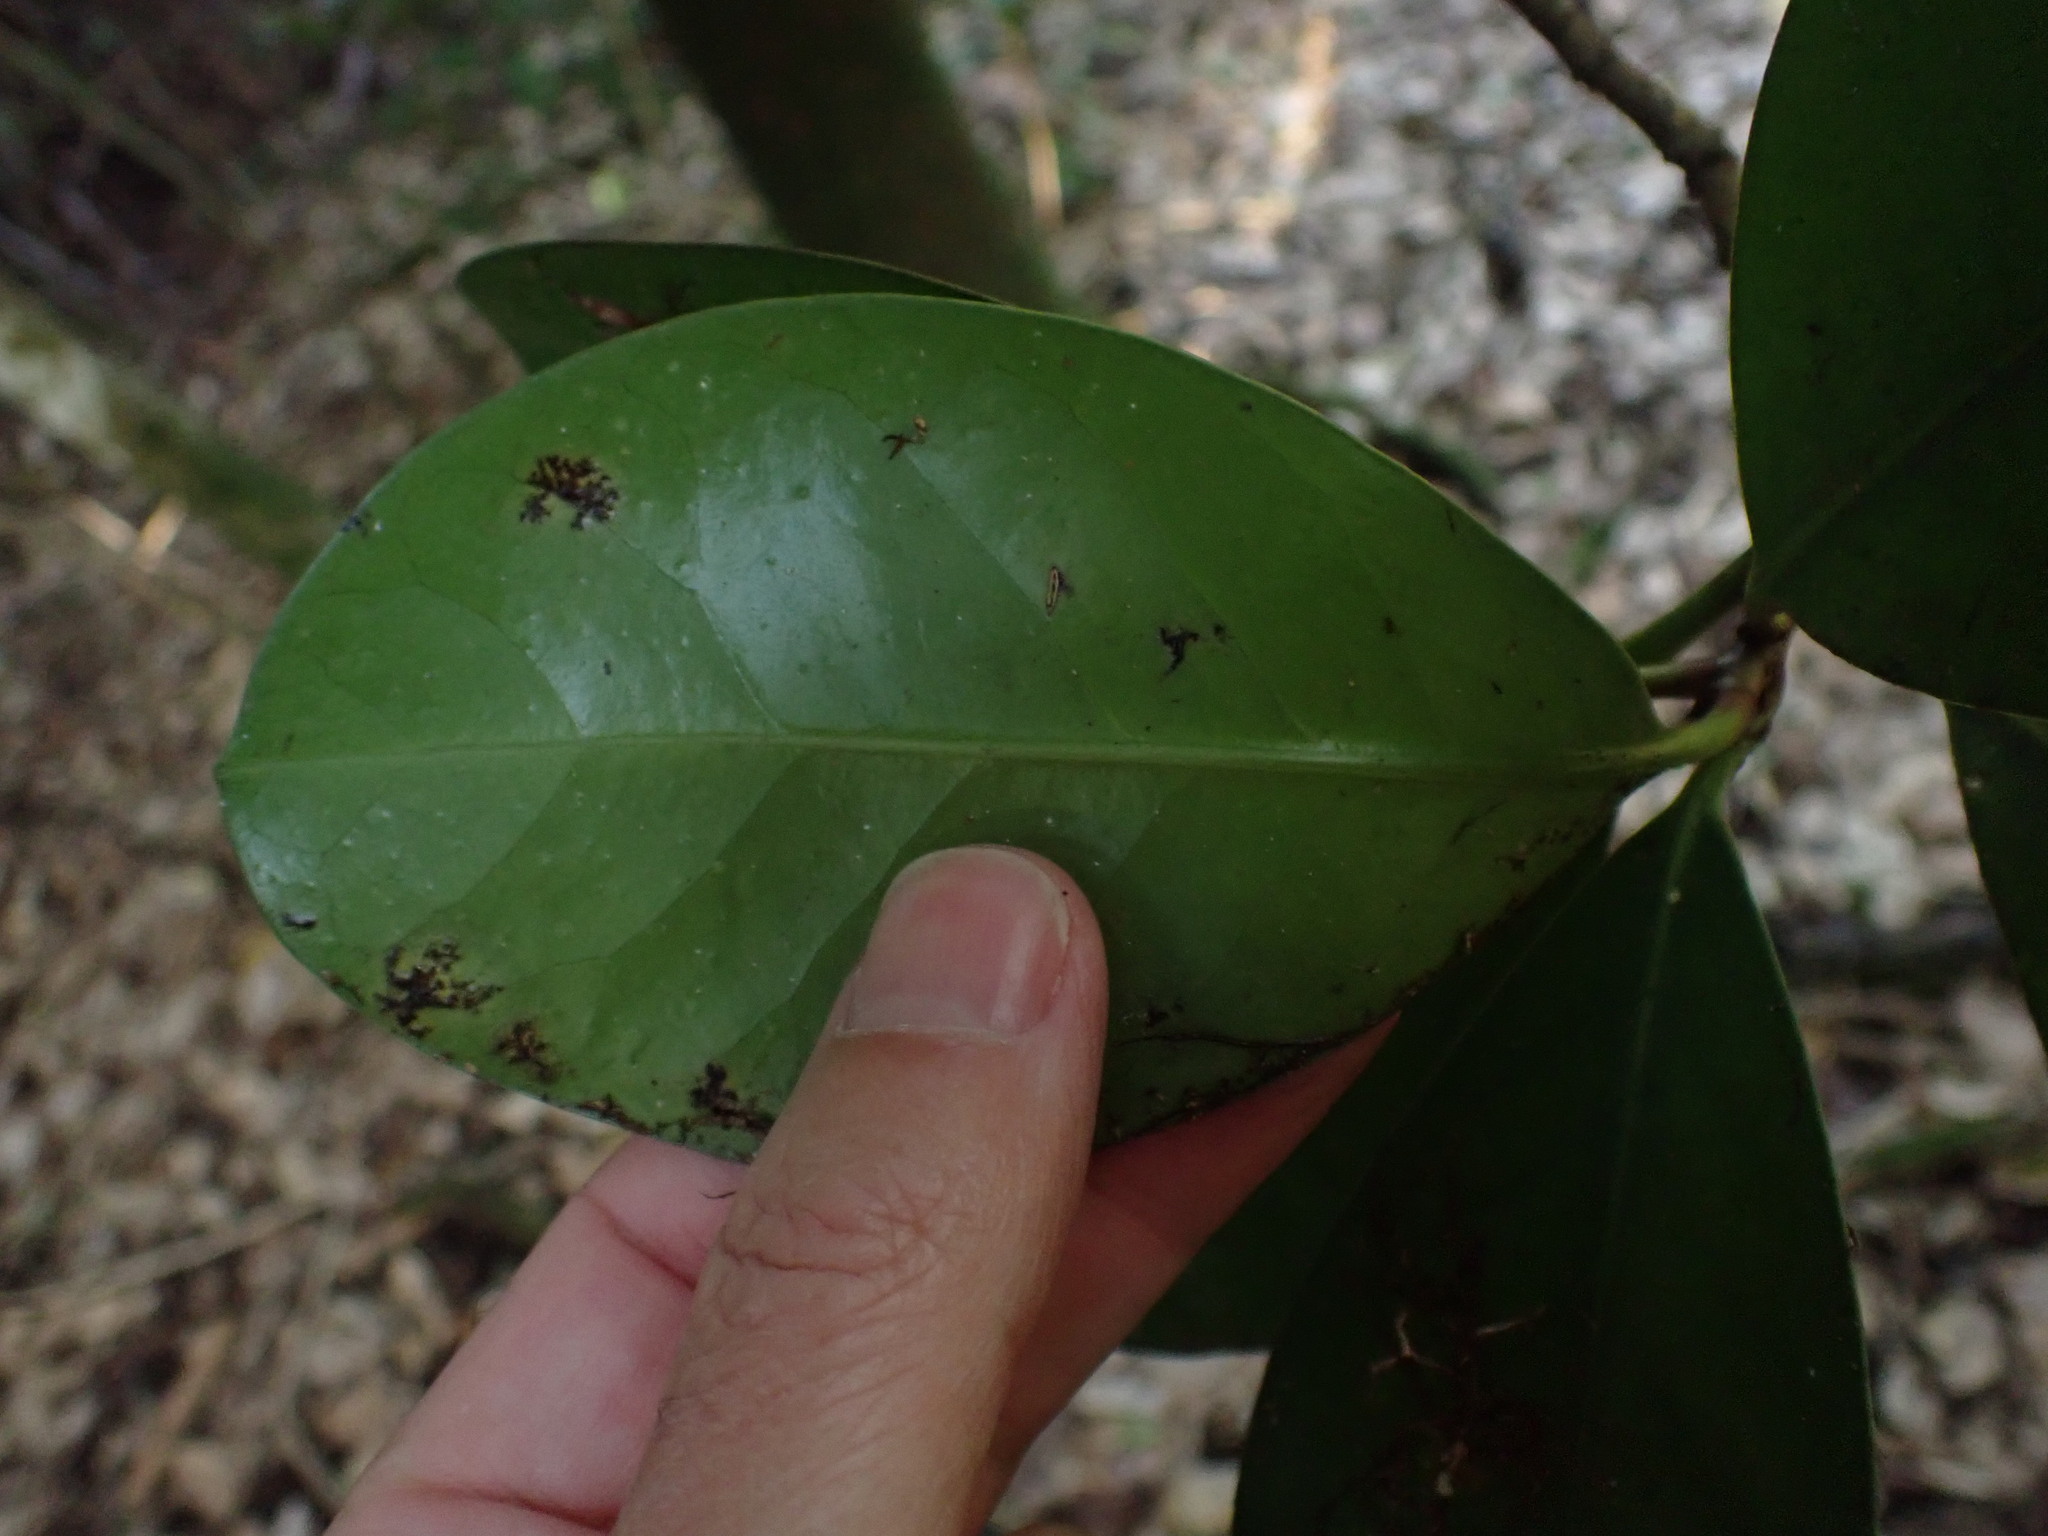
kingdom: Plantae
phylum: Tracheophyta
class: Magnoliopsida
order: Cucurbitales
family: Corynocarpaceae
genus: Corynocarpus
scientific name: Corynocarpus laevigatus
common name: New zealand laurel
